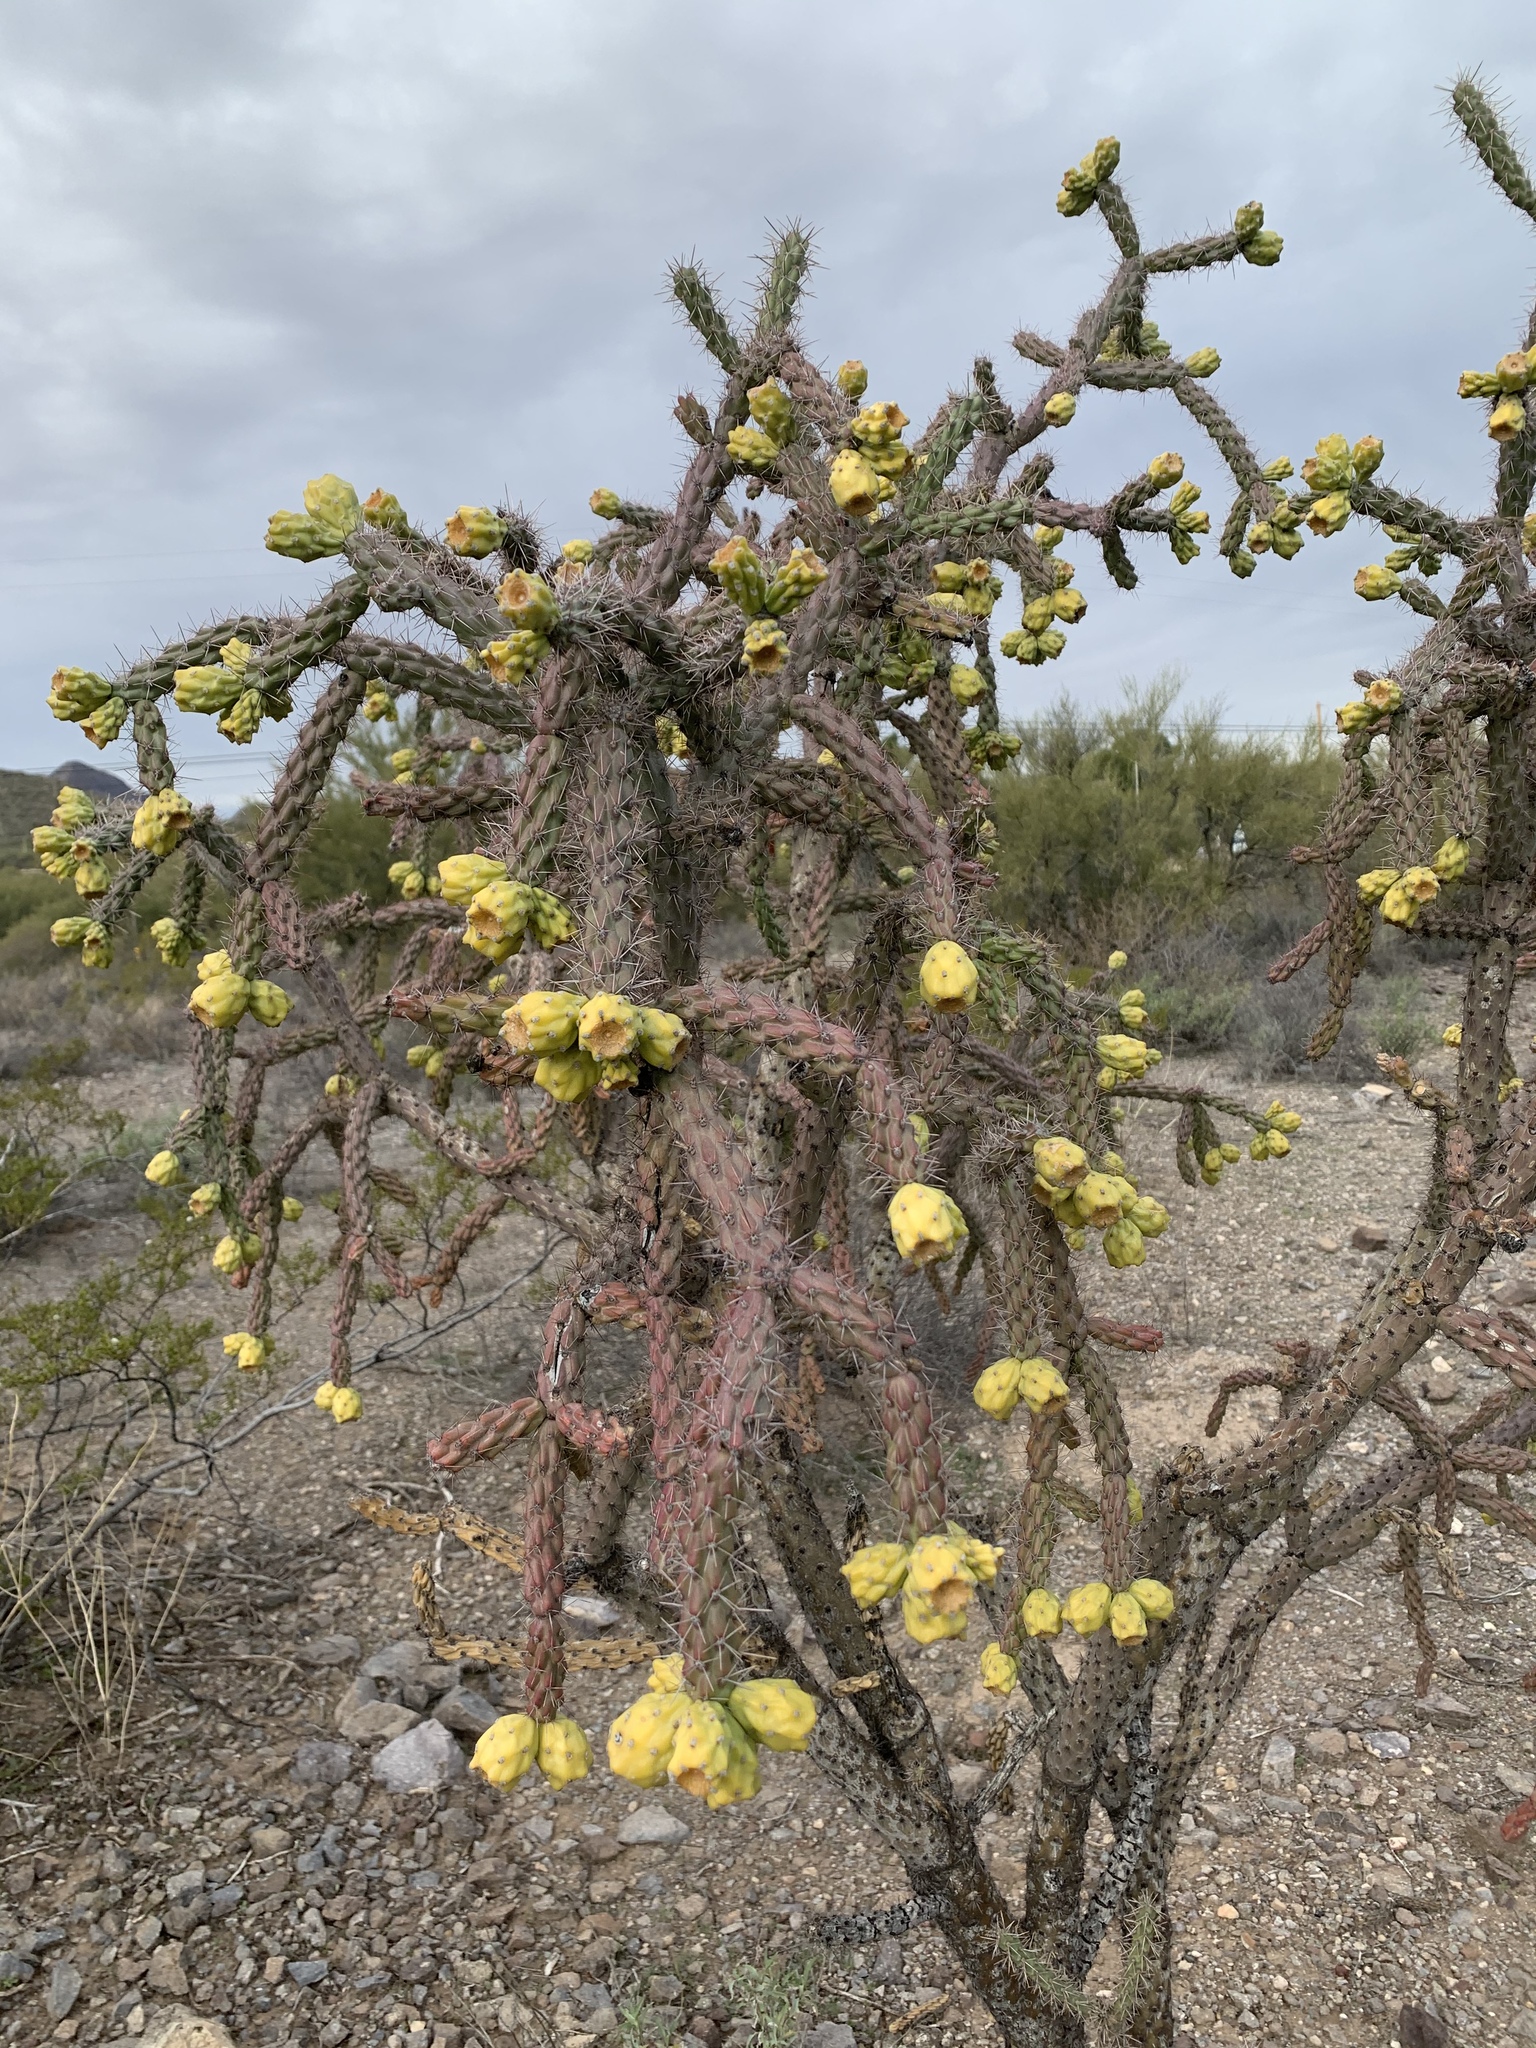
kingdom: Plantae
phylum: Tracheophyta
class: Magnoliopsida
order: Caryophyllales
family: Cactaceae
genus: Cylindropuntia
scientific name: Cylindropuntia thurberi
